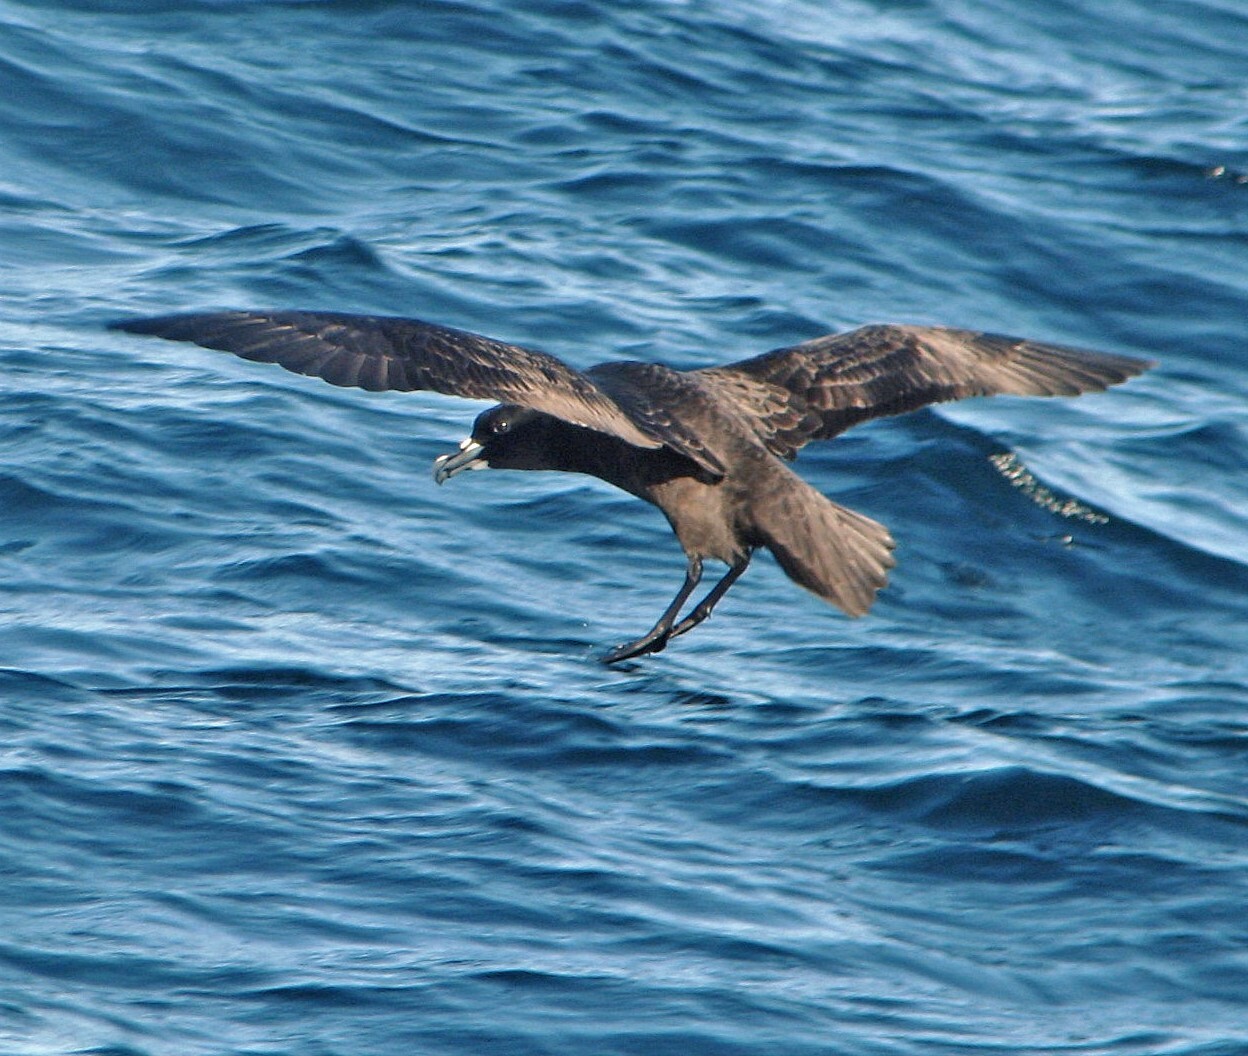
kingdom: Animalia
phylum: Chordata
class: Aves
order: Procellariiformes
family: Procellariidae
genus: Procellaria
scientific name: Procellaria aequinoctialis
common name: White-chinned petrel
